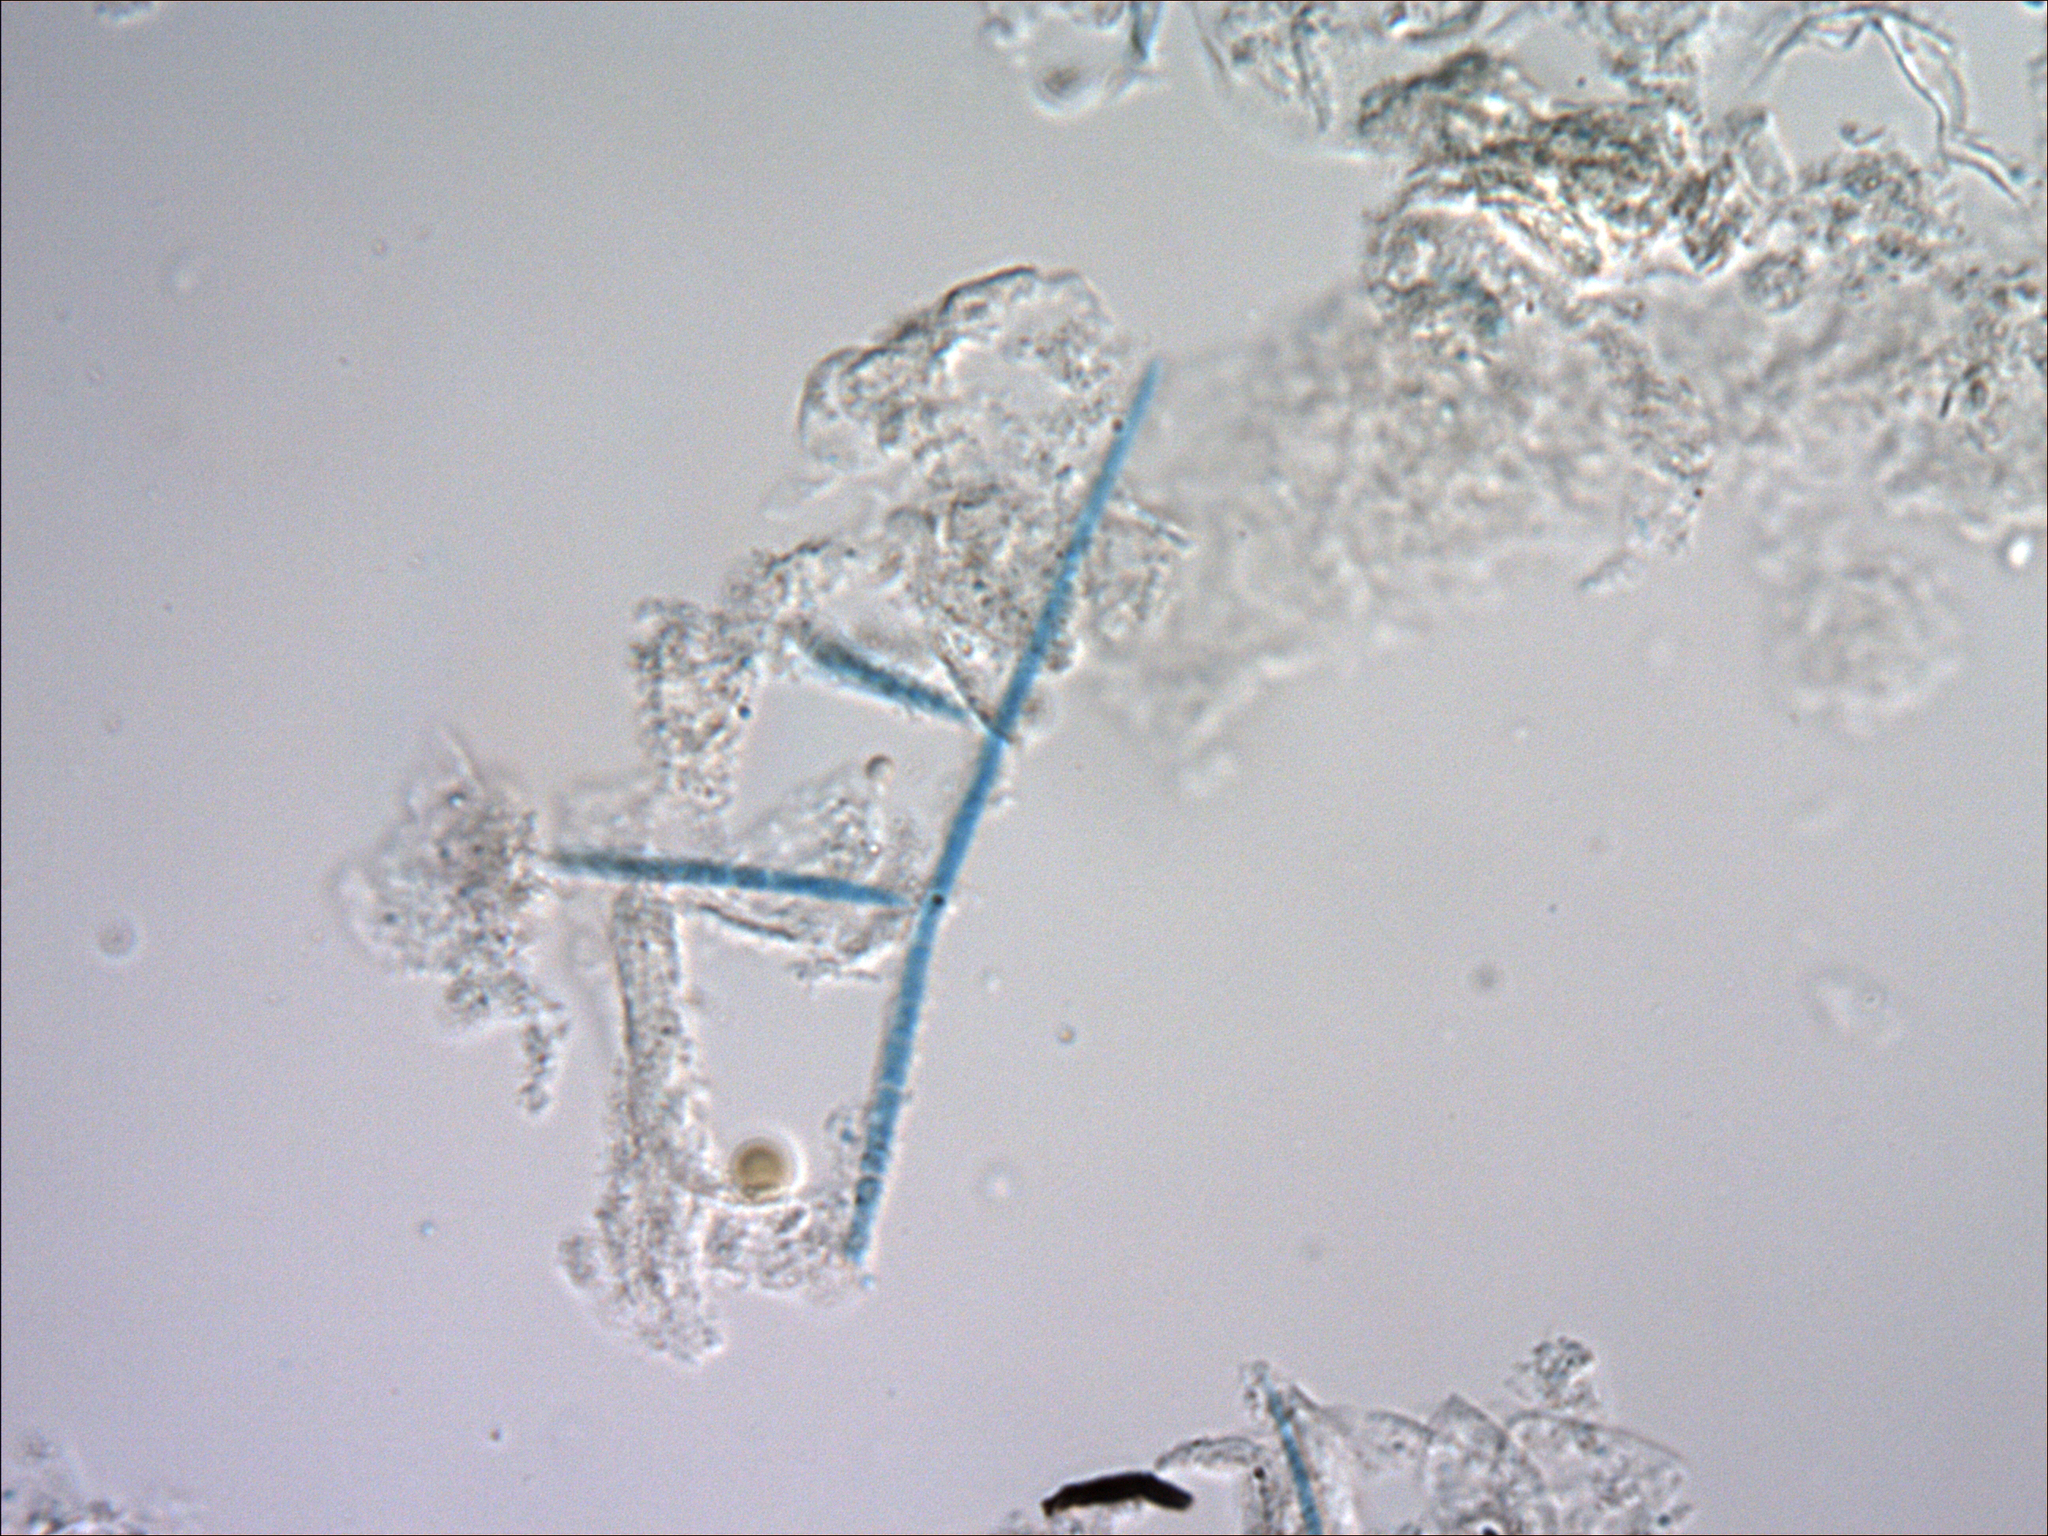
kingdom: Fungi
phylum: Ascomycota
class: Leotiomycetes
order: Helotiales
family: Tricladiaceae
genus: Tricladium
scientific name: Tricladium angulatum
